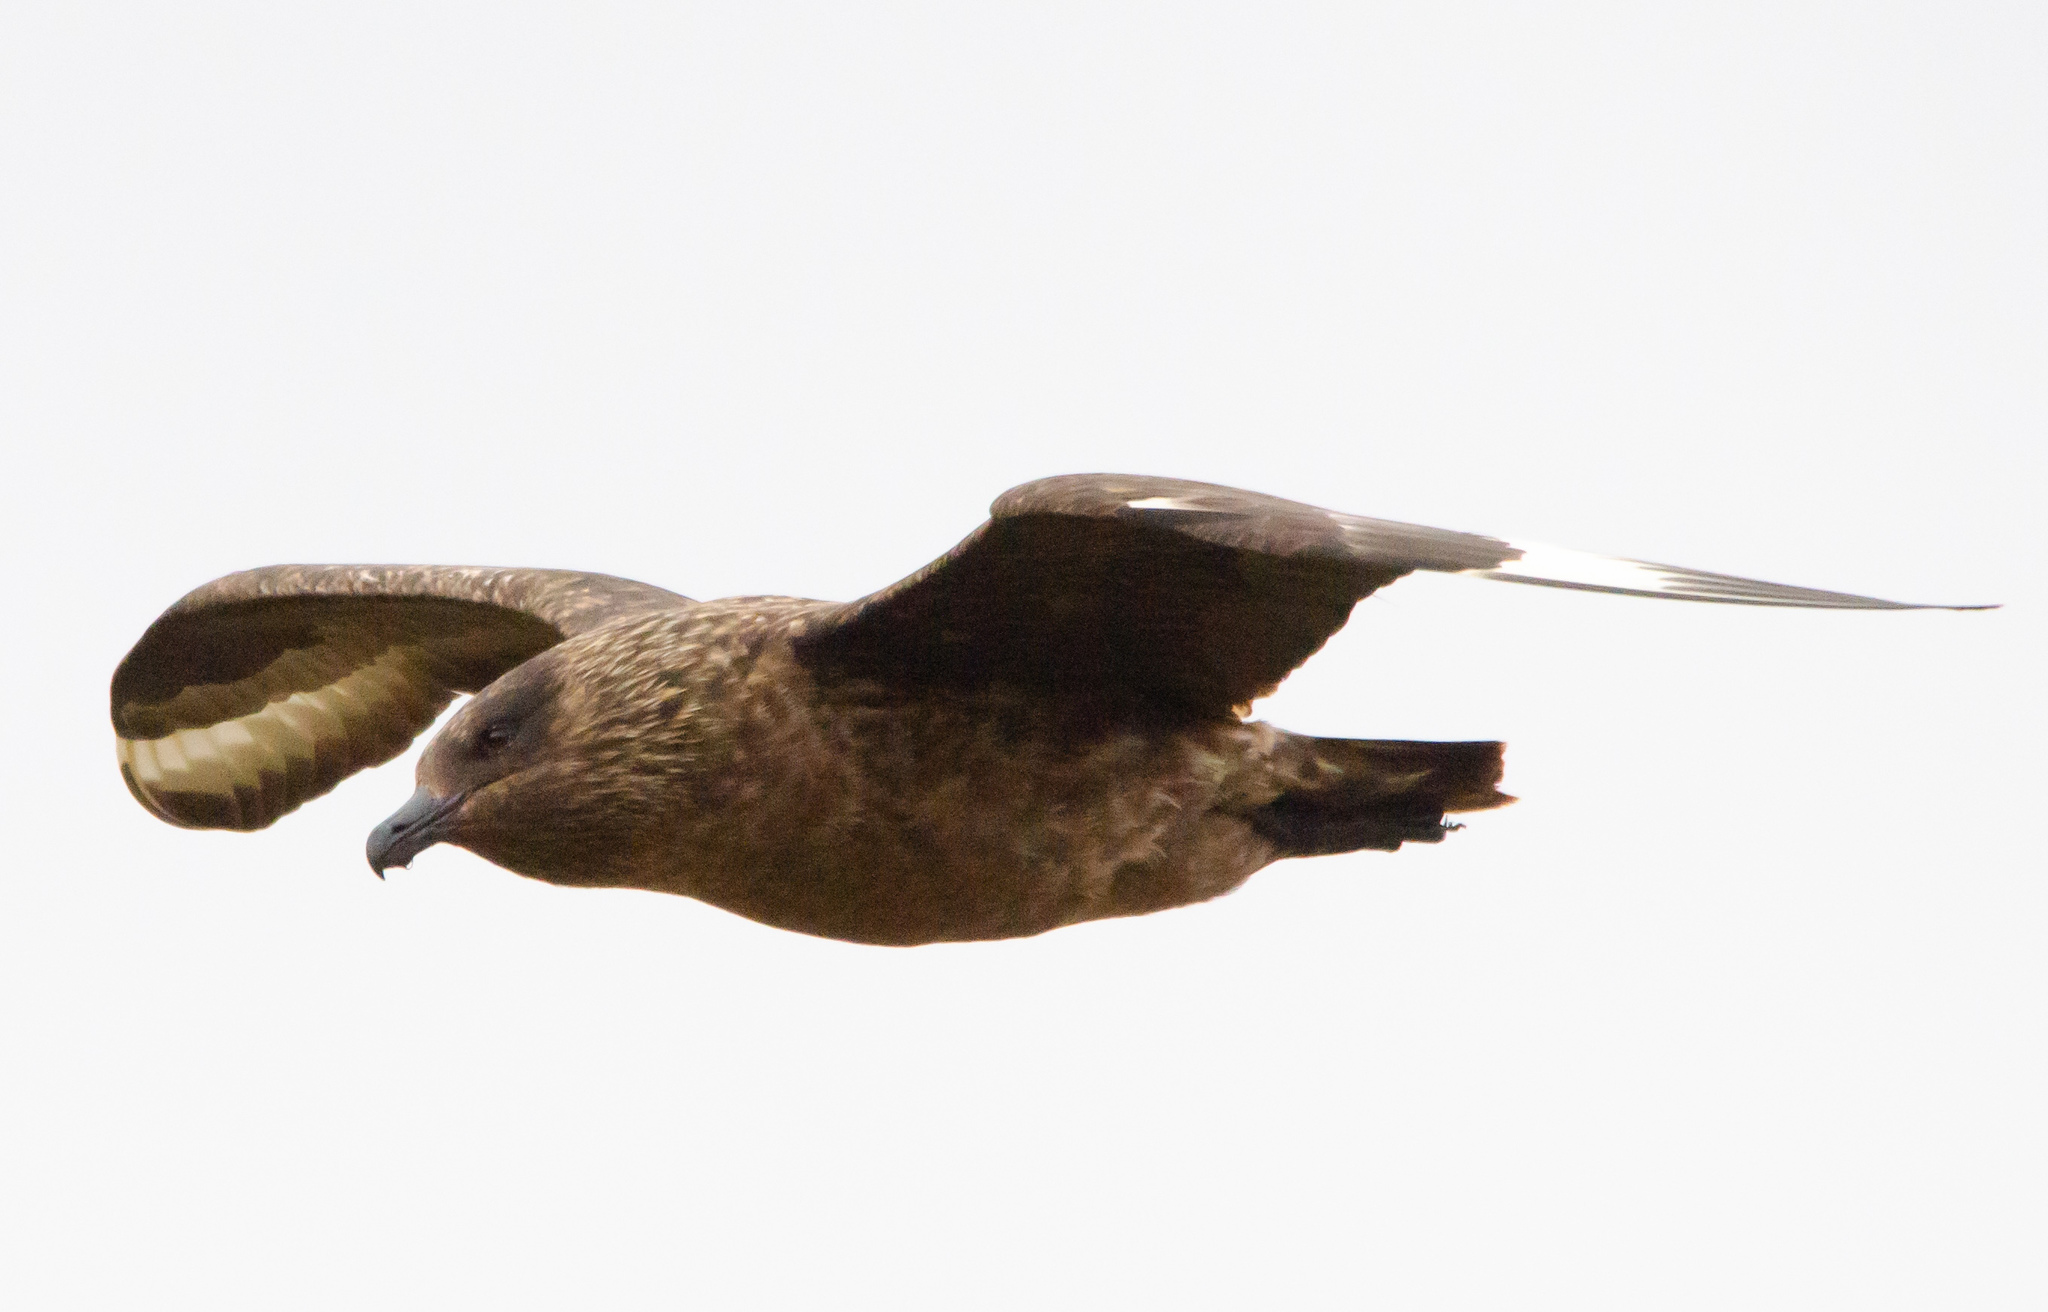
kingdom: Animalia
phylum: Chordata
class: Aves
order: Charadriiformes
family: Stercorariidae
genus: Stercorarius
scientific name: Stercorarius skua
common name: Great skua
